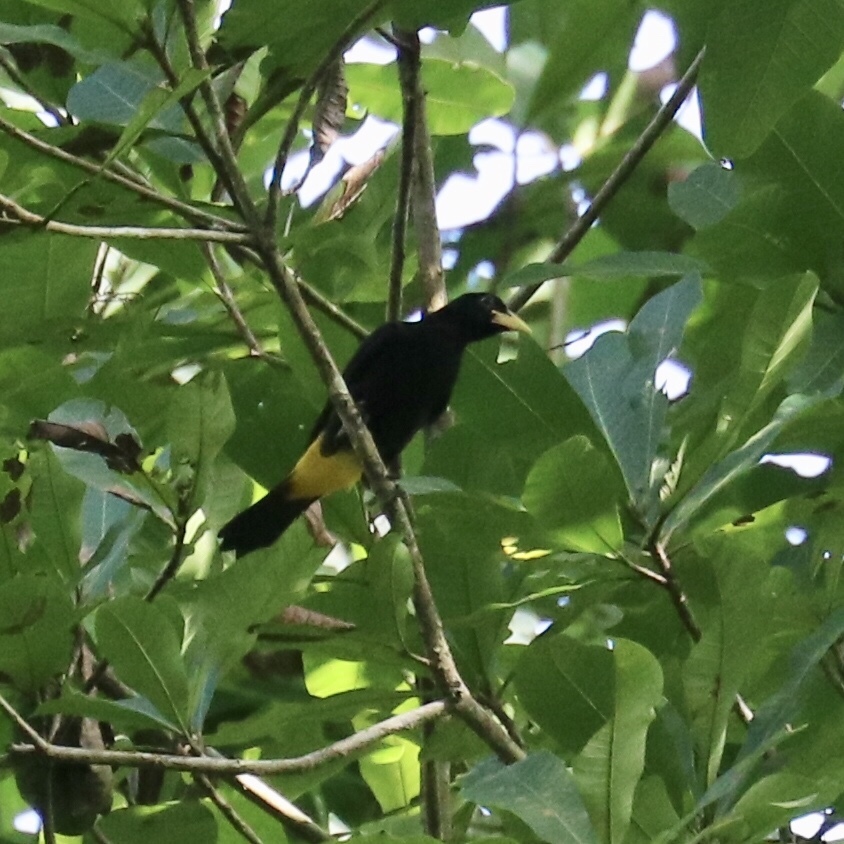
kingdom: Animalia
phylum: Chordata
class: Aves
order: Passeriformes
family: Icteridae
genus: Cacicus
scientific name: Cacicus cela
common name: Yellow-rumped cacique
